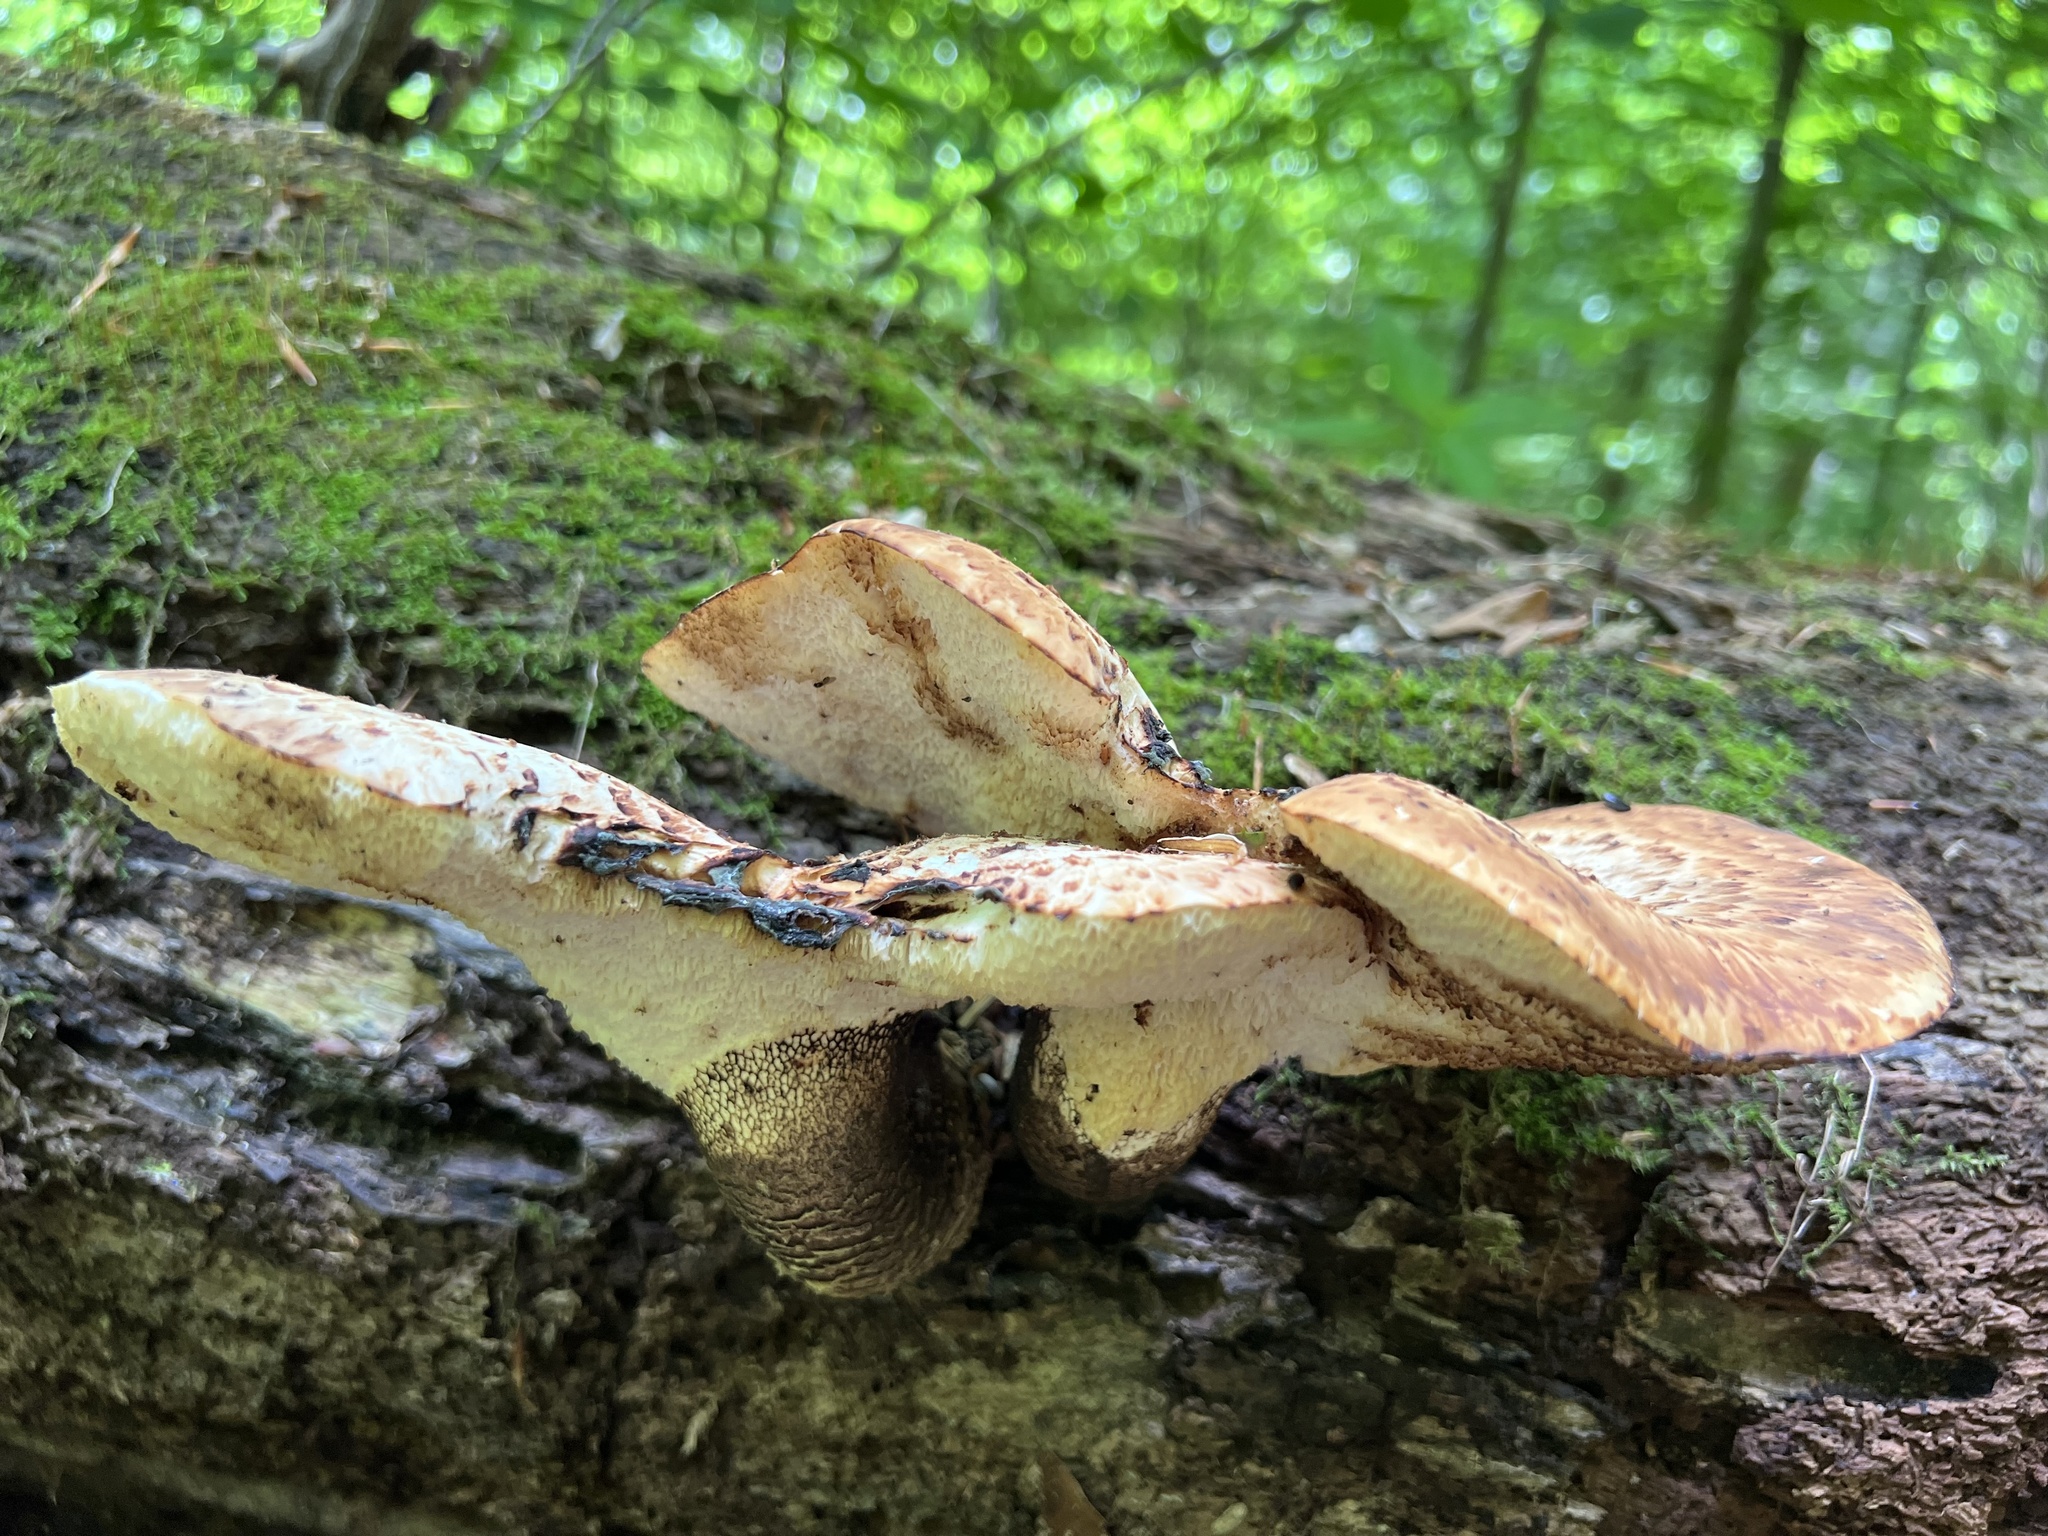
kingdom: Fungi
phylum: Basidiomycota
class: Agaricomycetes
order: Polyporales
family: Polyporaceae
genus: Cerioporus
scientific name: Cerioporus squamosus
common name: Dryad's saddle
